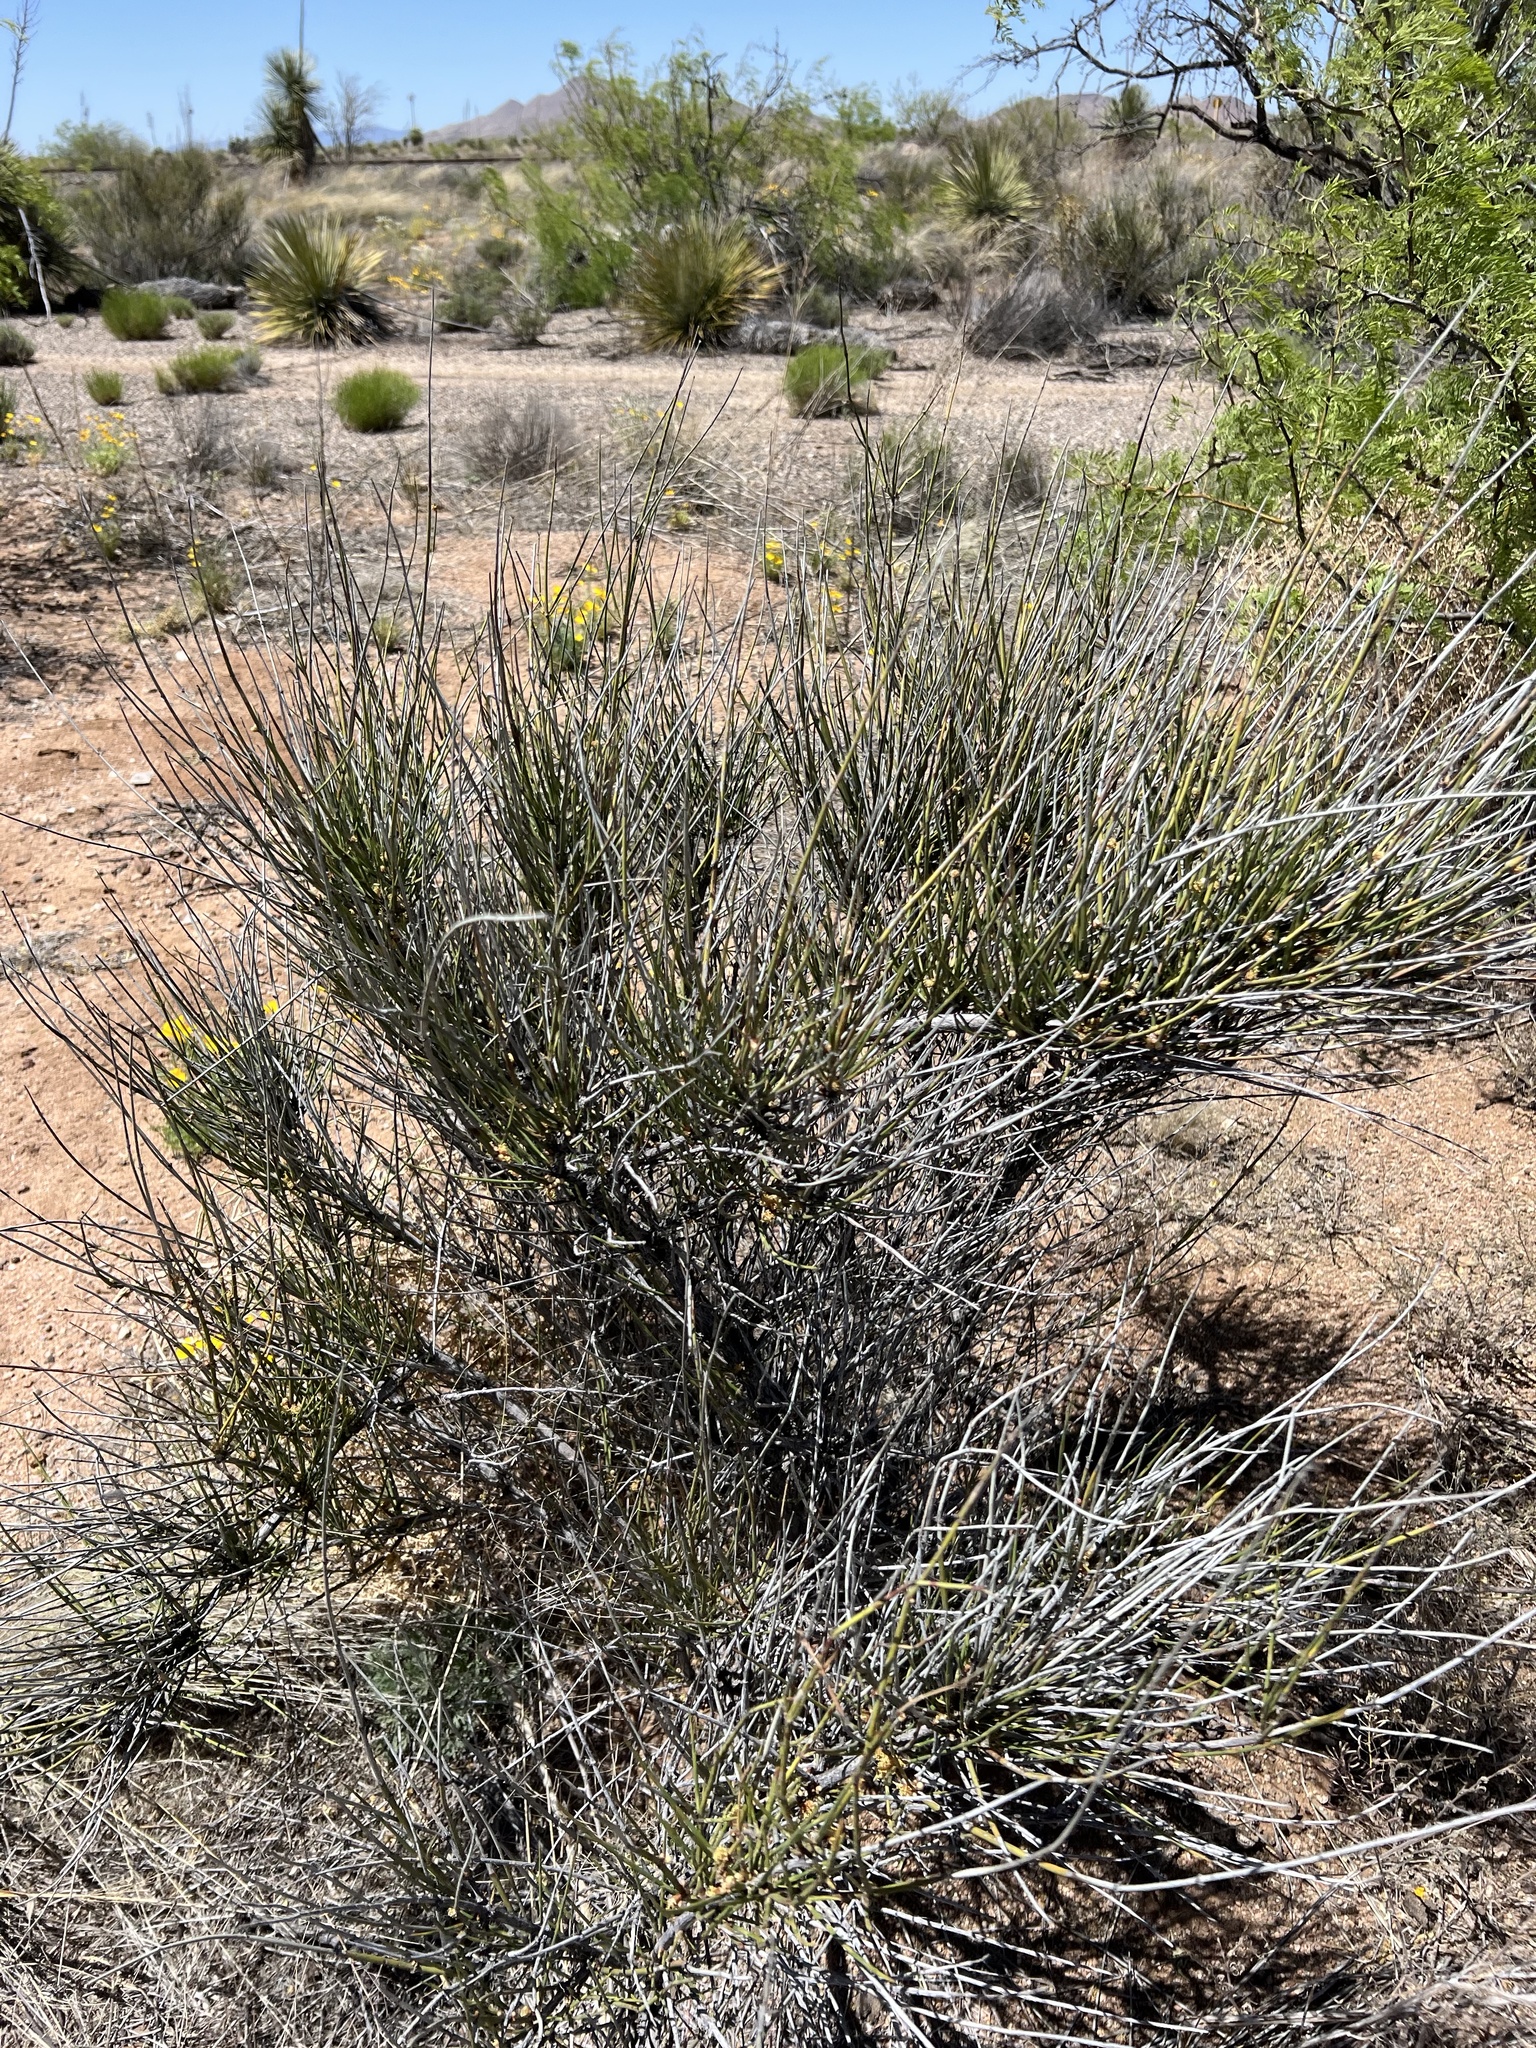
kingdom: Plantae
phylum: Tracheophyta
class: Gnetopsida
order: Ephedrales
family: Ephedraceae
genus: Ephedra
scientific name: Ephedra trifurca
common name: Mexican-tea
